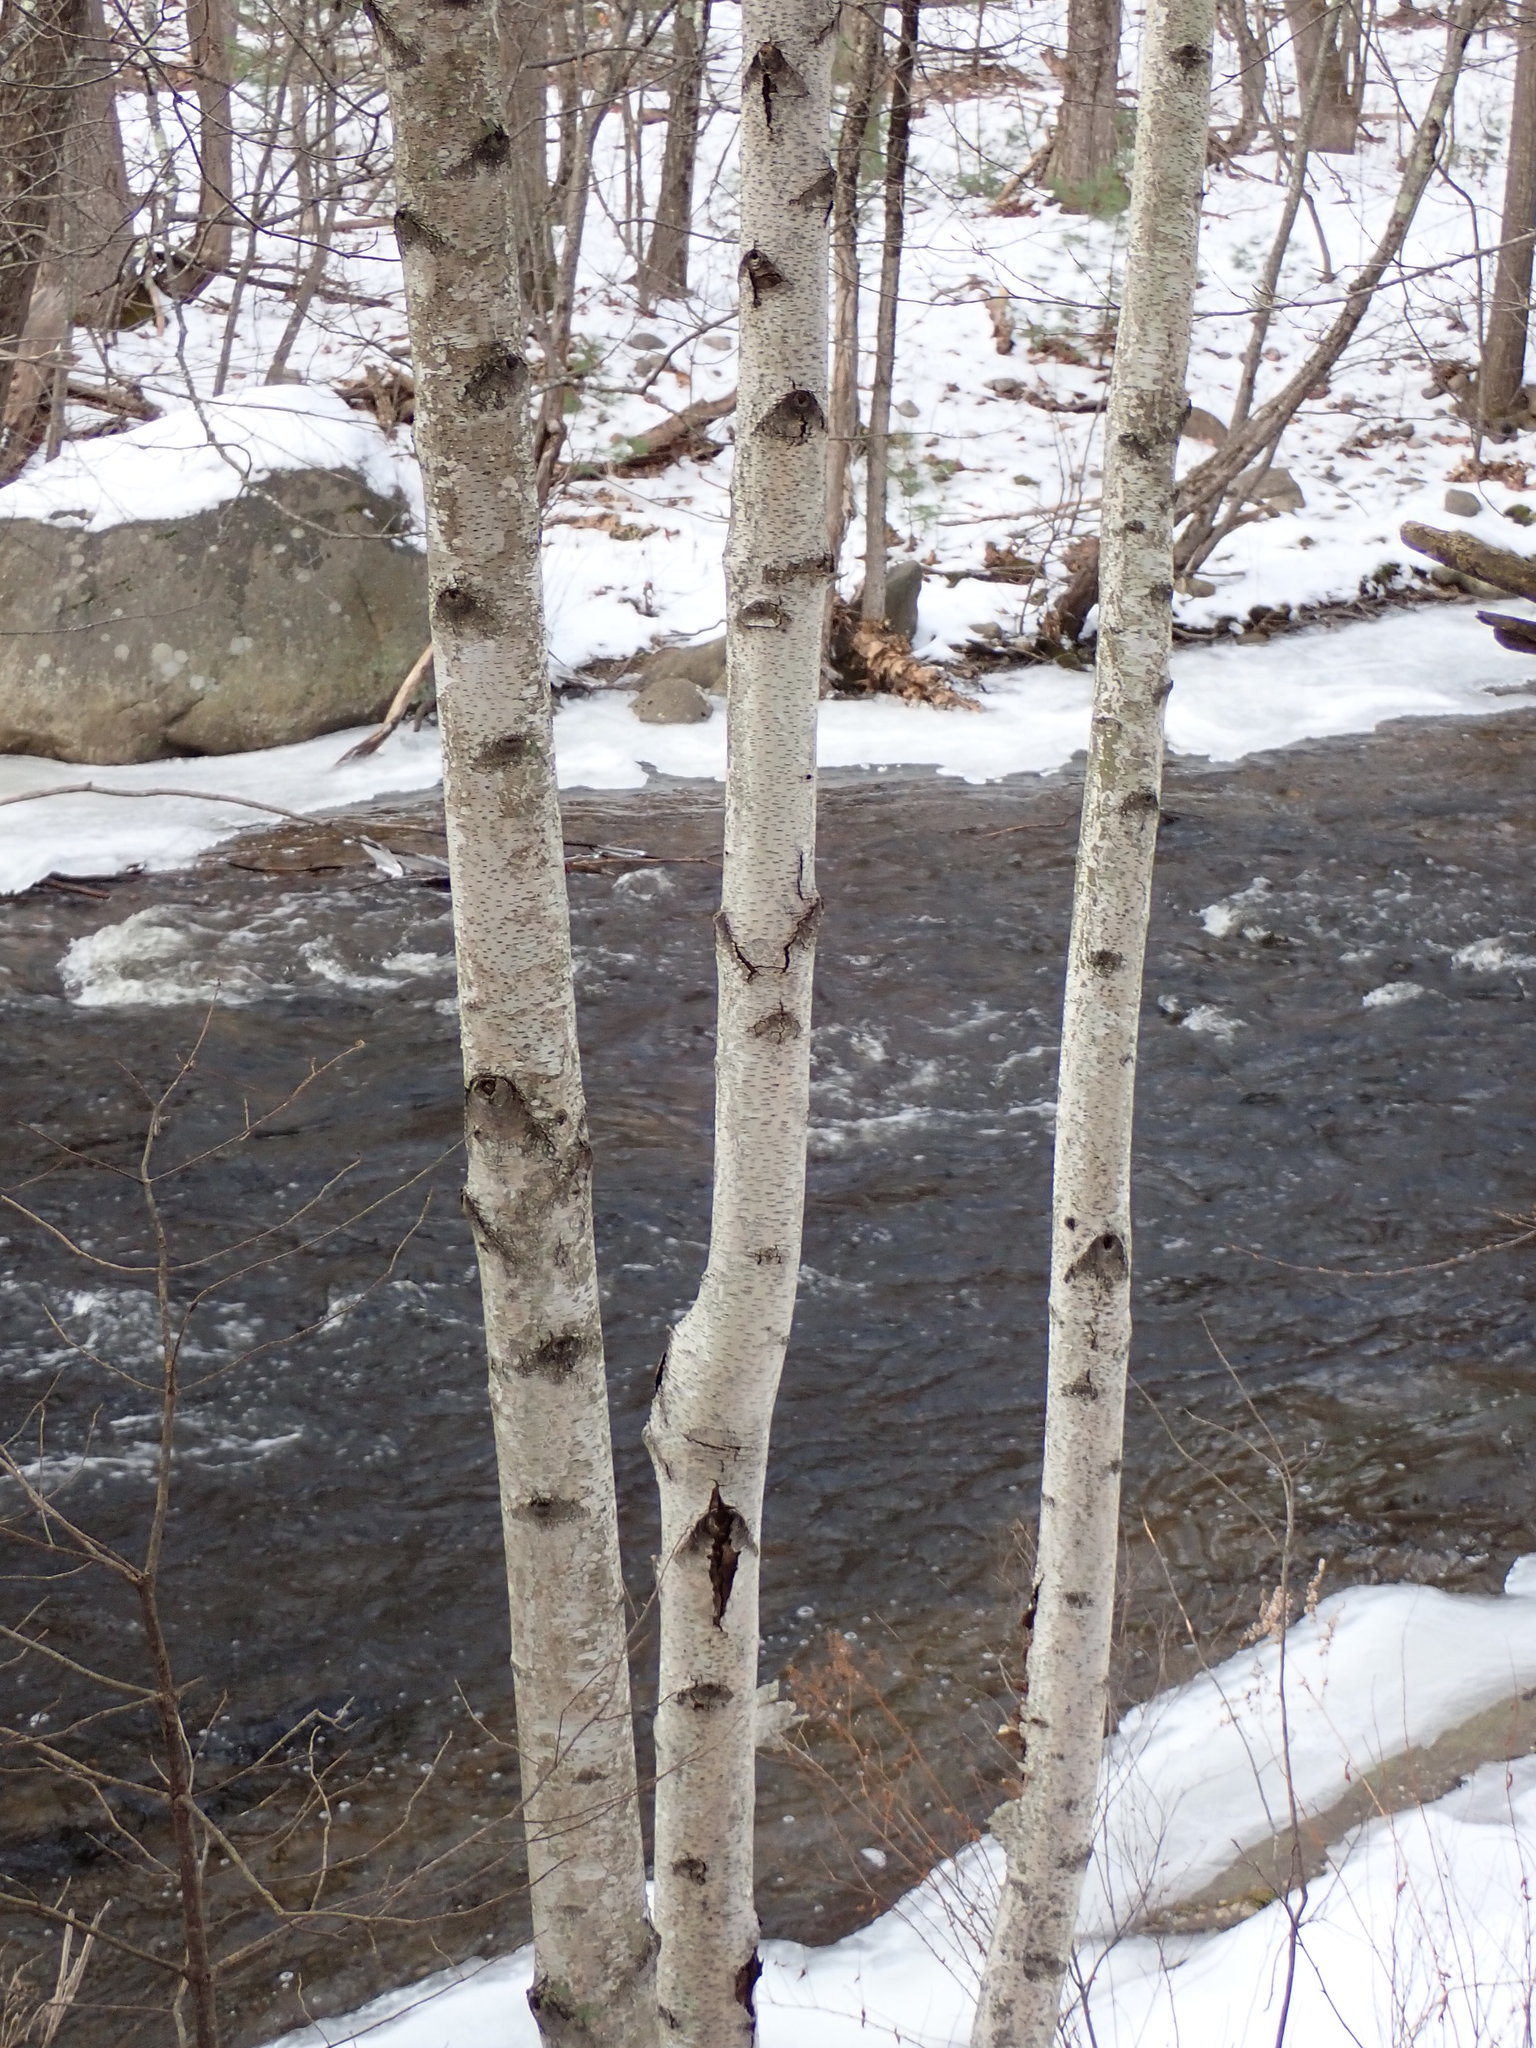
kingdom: Plantae
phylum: Tracheophyta
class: Magnoliopsida
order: Fagales
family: Betulaceae
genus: Betula
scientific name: Betula populifolia
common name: Fire birch
